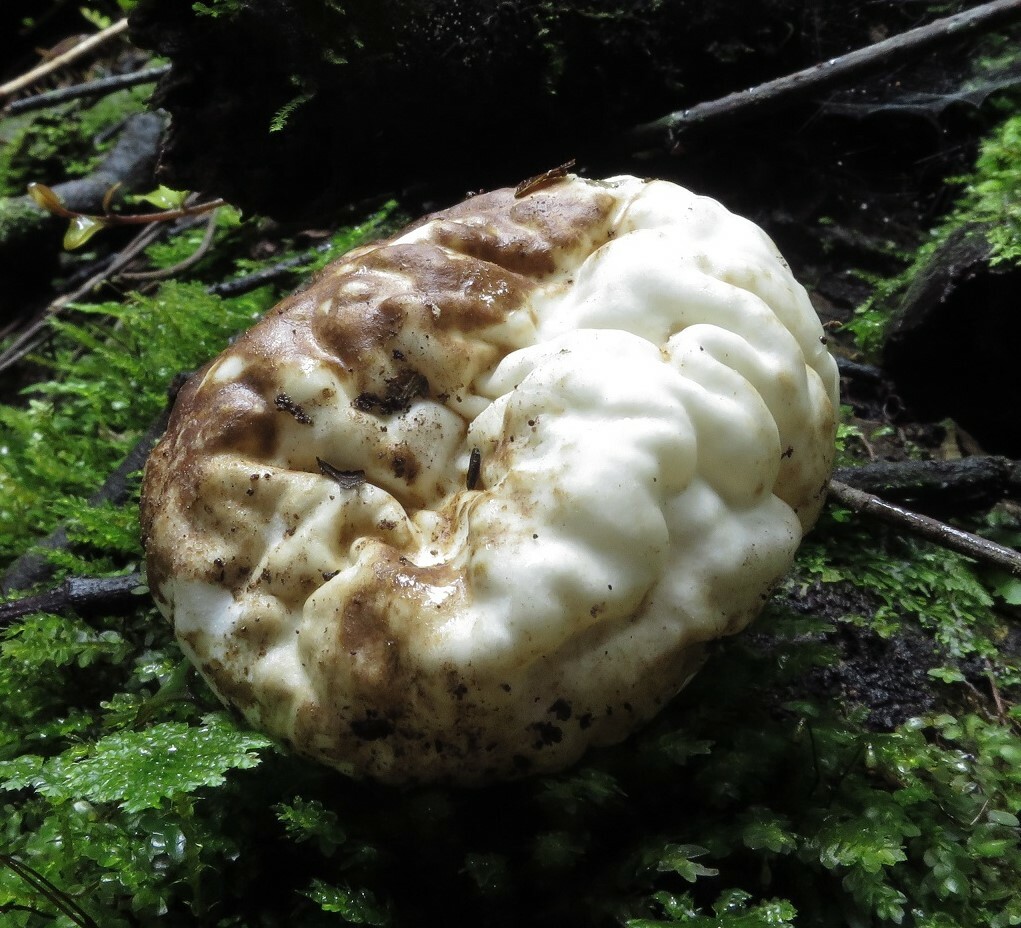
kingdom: Fungi
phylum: Basidiomycota
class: Agaricomycetes
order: Hysterangiales
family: Phallogastraceae
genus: Protubera
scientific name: Protubera parvispora
